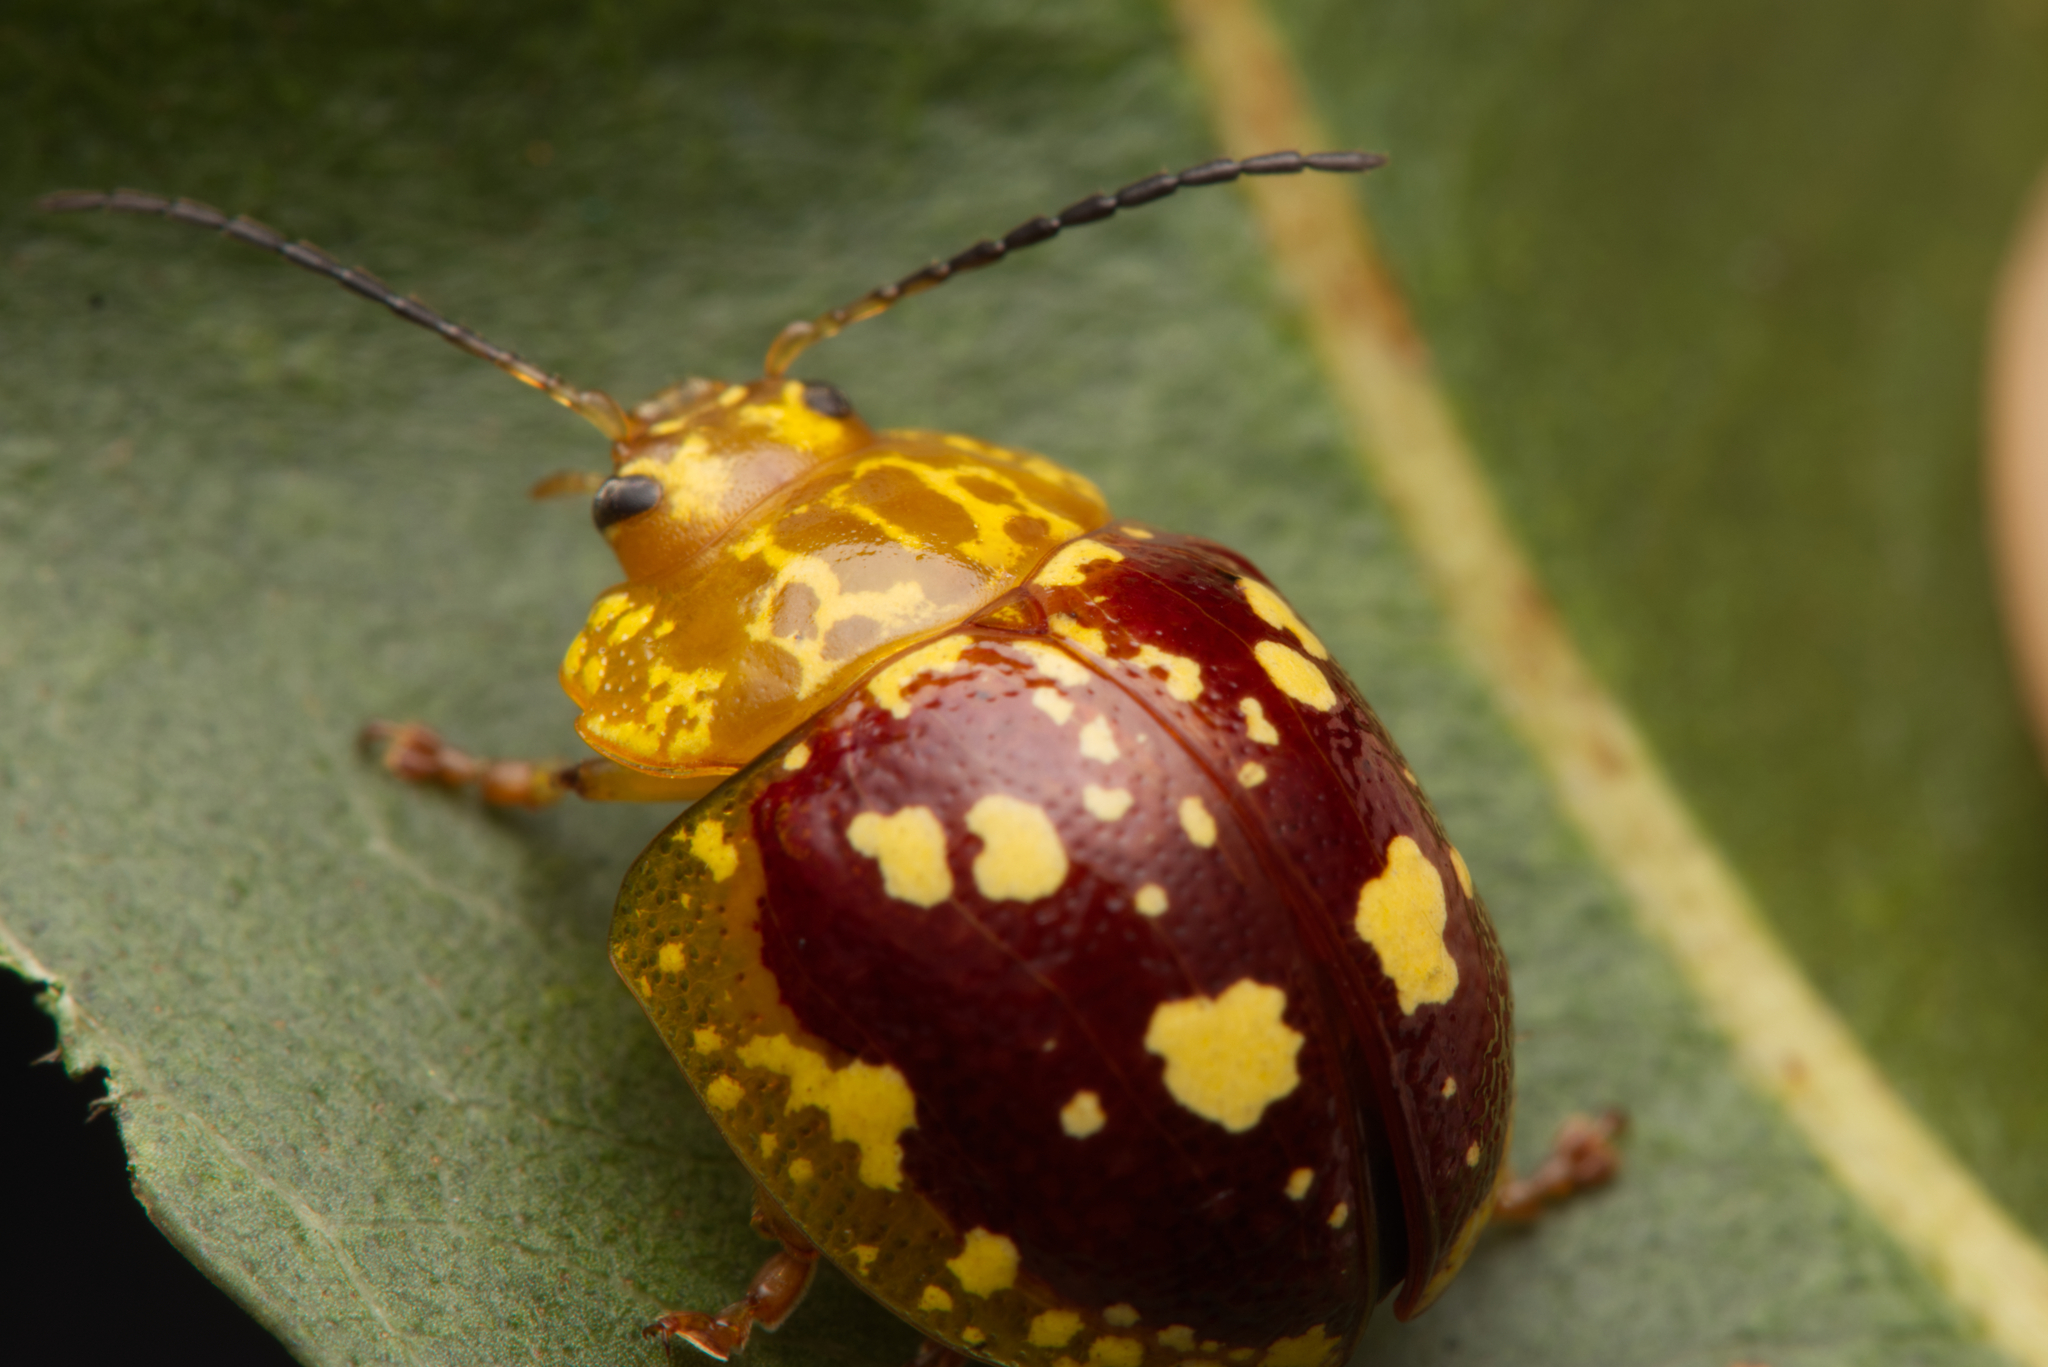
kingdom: Animalia
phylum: Arthropoda
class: Insecta
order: Coleoptera
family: Chrysomelidae
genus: Paropsis
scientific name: Paropsis maculata
